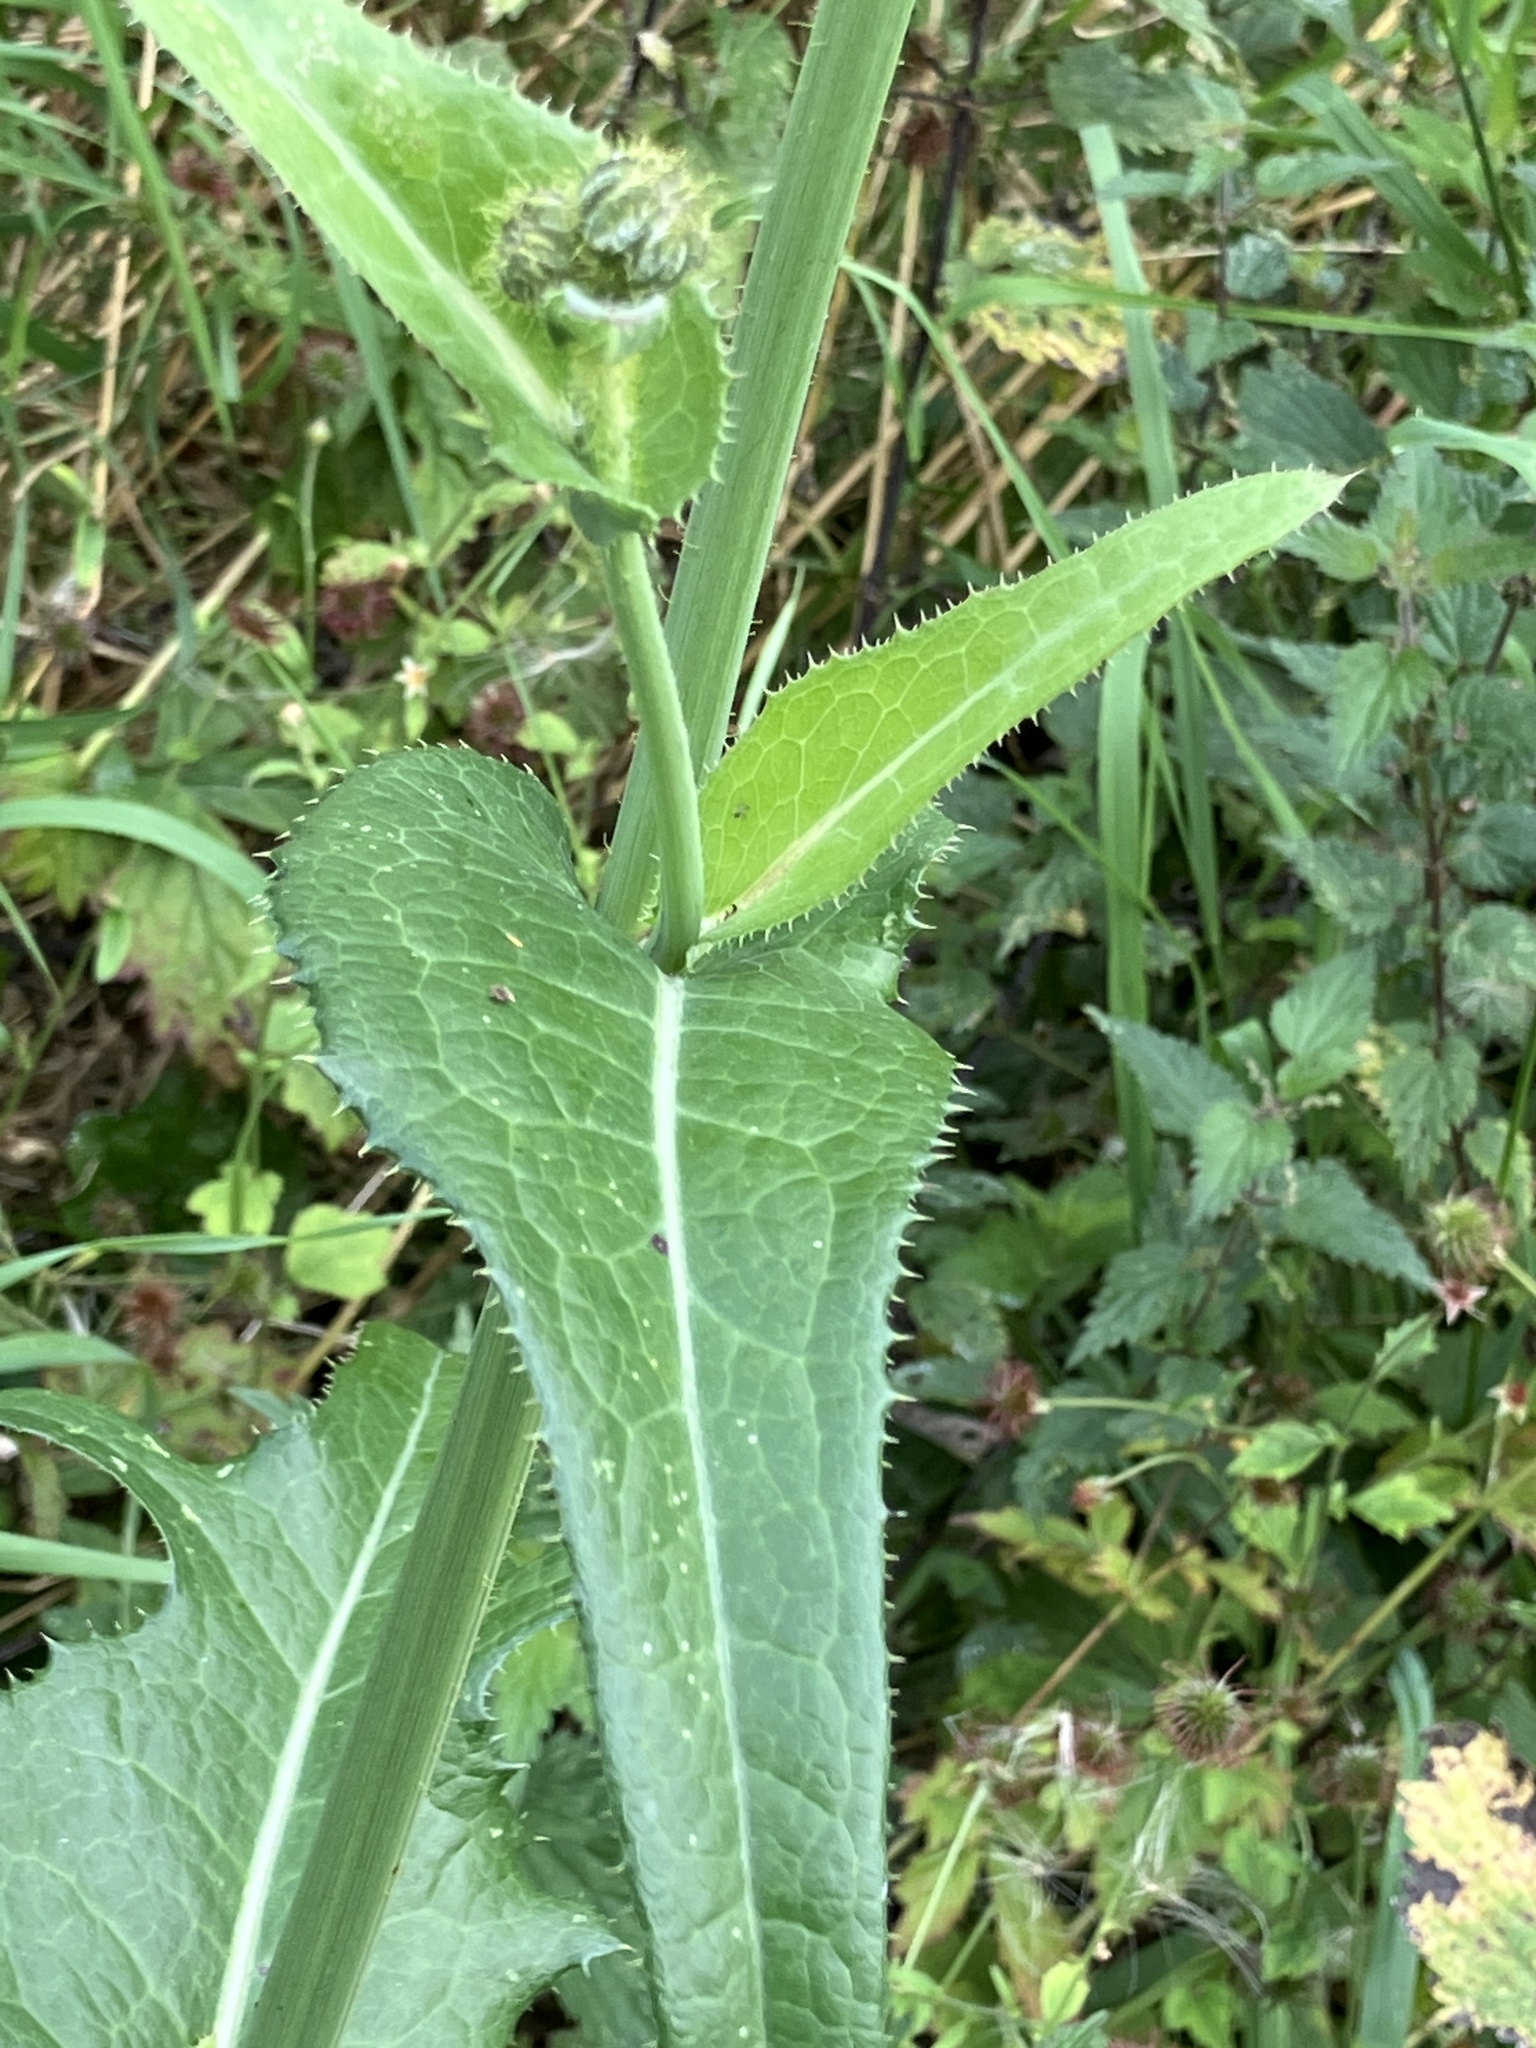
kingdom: Plantae
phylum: Tracheophyta
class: Magnoliopsida
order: Asterales
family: Asteraceae
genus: Sonchus
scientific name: Sonchus arvensis
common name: Perennial sow-thistle
